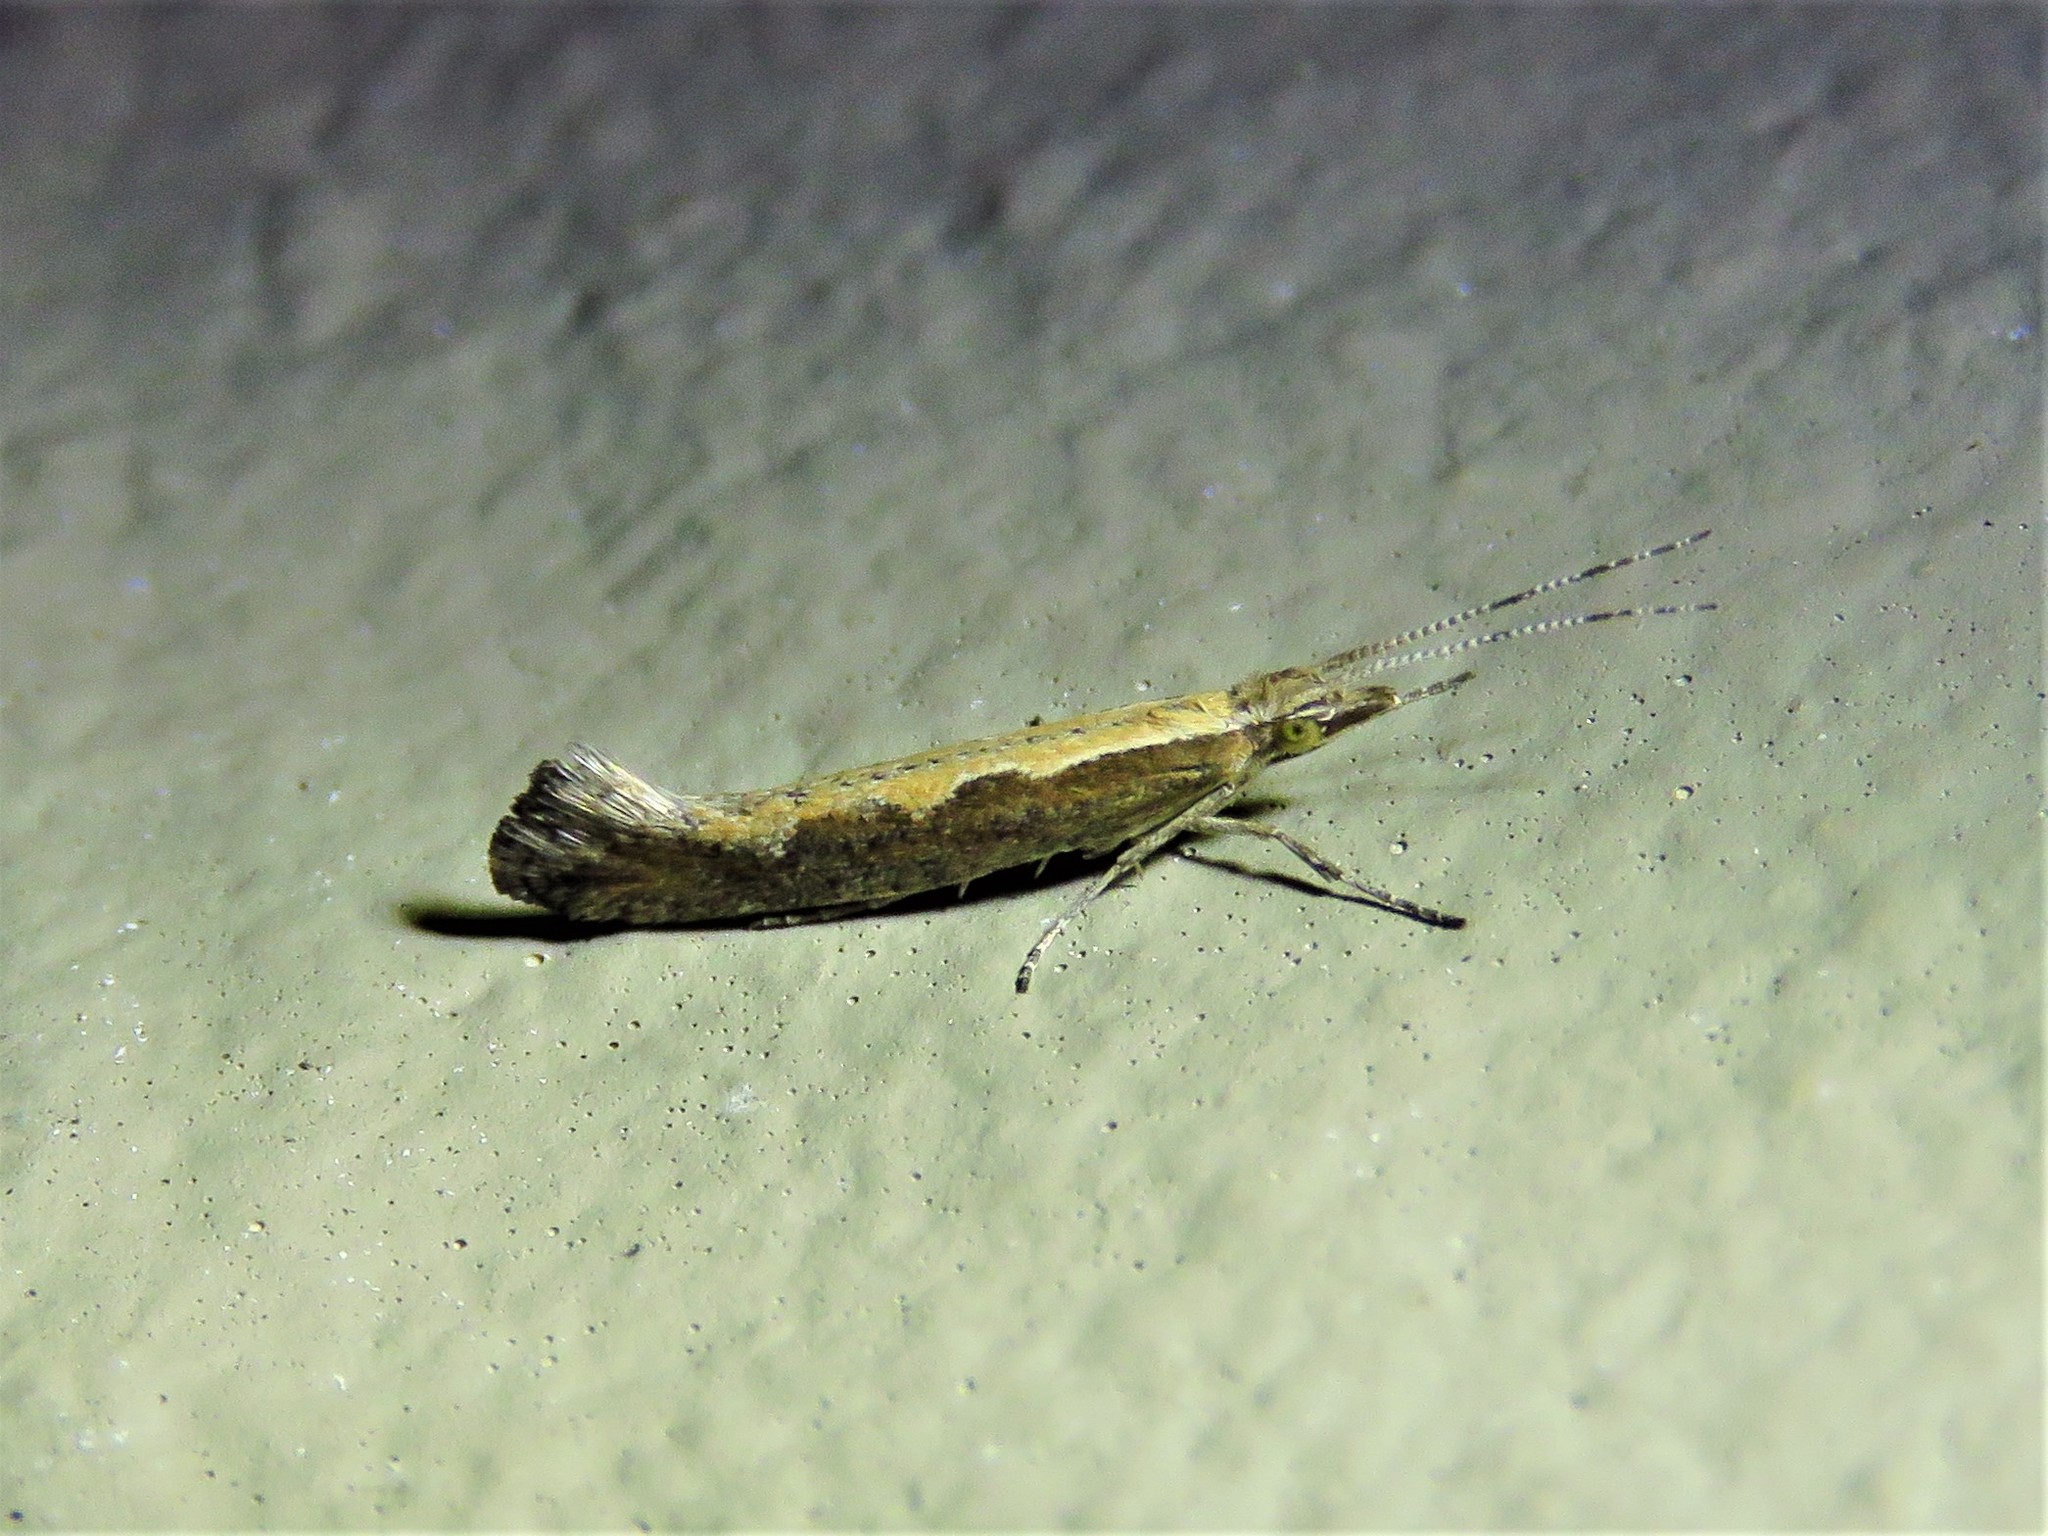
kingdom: Animalia
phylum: Arthropoda
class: Insecta
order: Lepidoptera
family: Plutellidae
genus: Plutella
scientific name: Plutella xylostella
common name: Diamond-back moth
